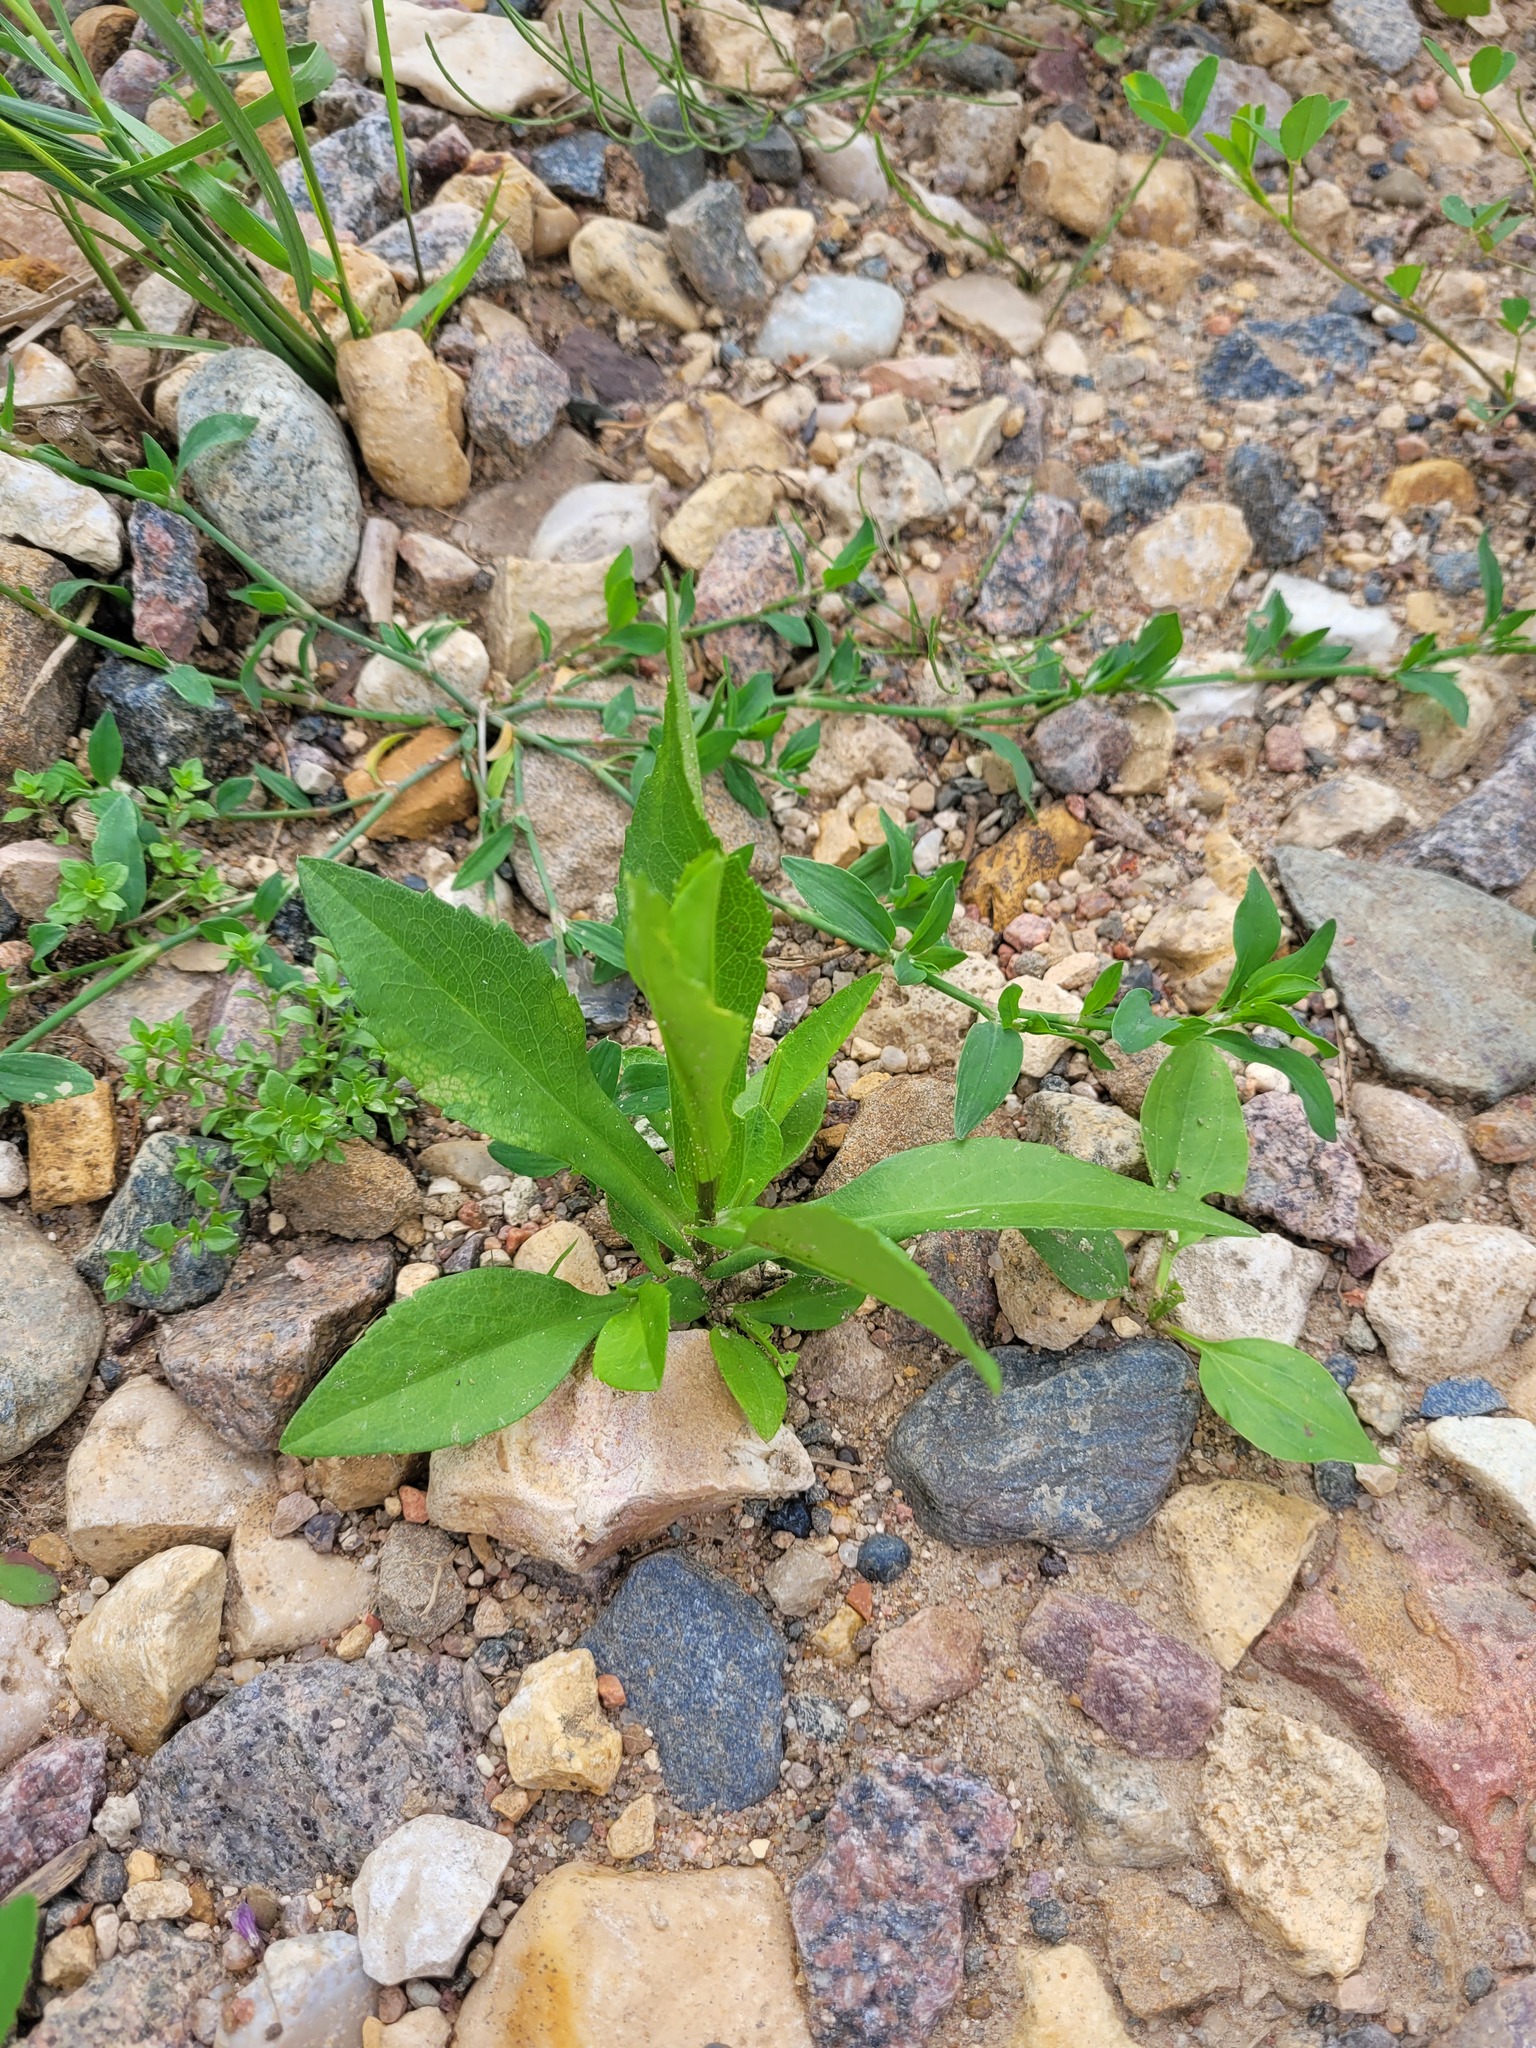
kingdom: Plantae
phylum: Tracheophyta
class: Magnoliopsida
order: Asterales
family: Asteraceae
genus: Symphyotrichum
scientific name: Symphyotrichum novi-belgii
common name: Michaelmas daisy
